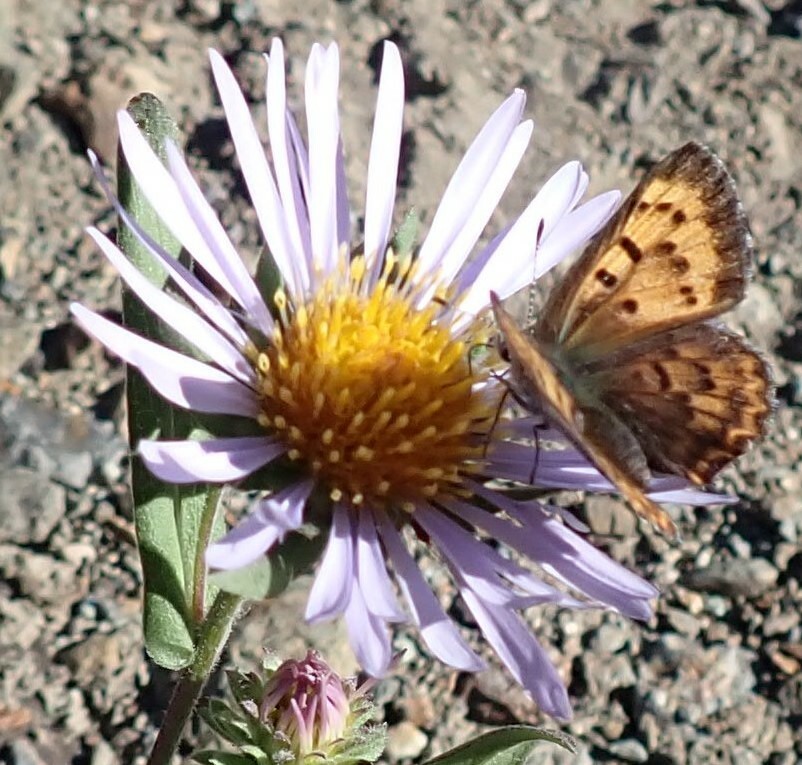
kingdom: Animalia
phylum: Arthropoda
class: Insecta
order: Lepidoptera
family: Lycaenidae
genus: Tharsalea
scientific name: Tharsalea mariposa
